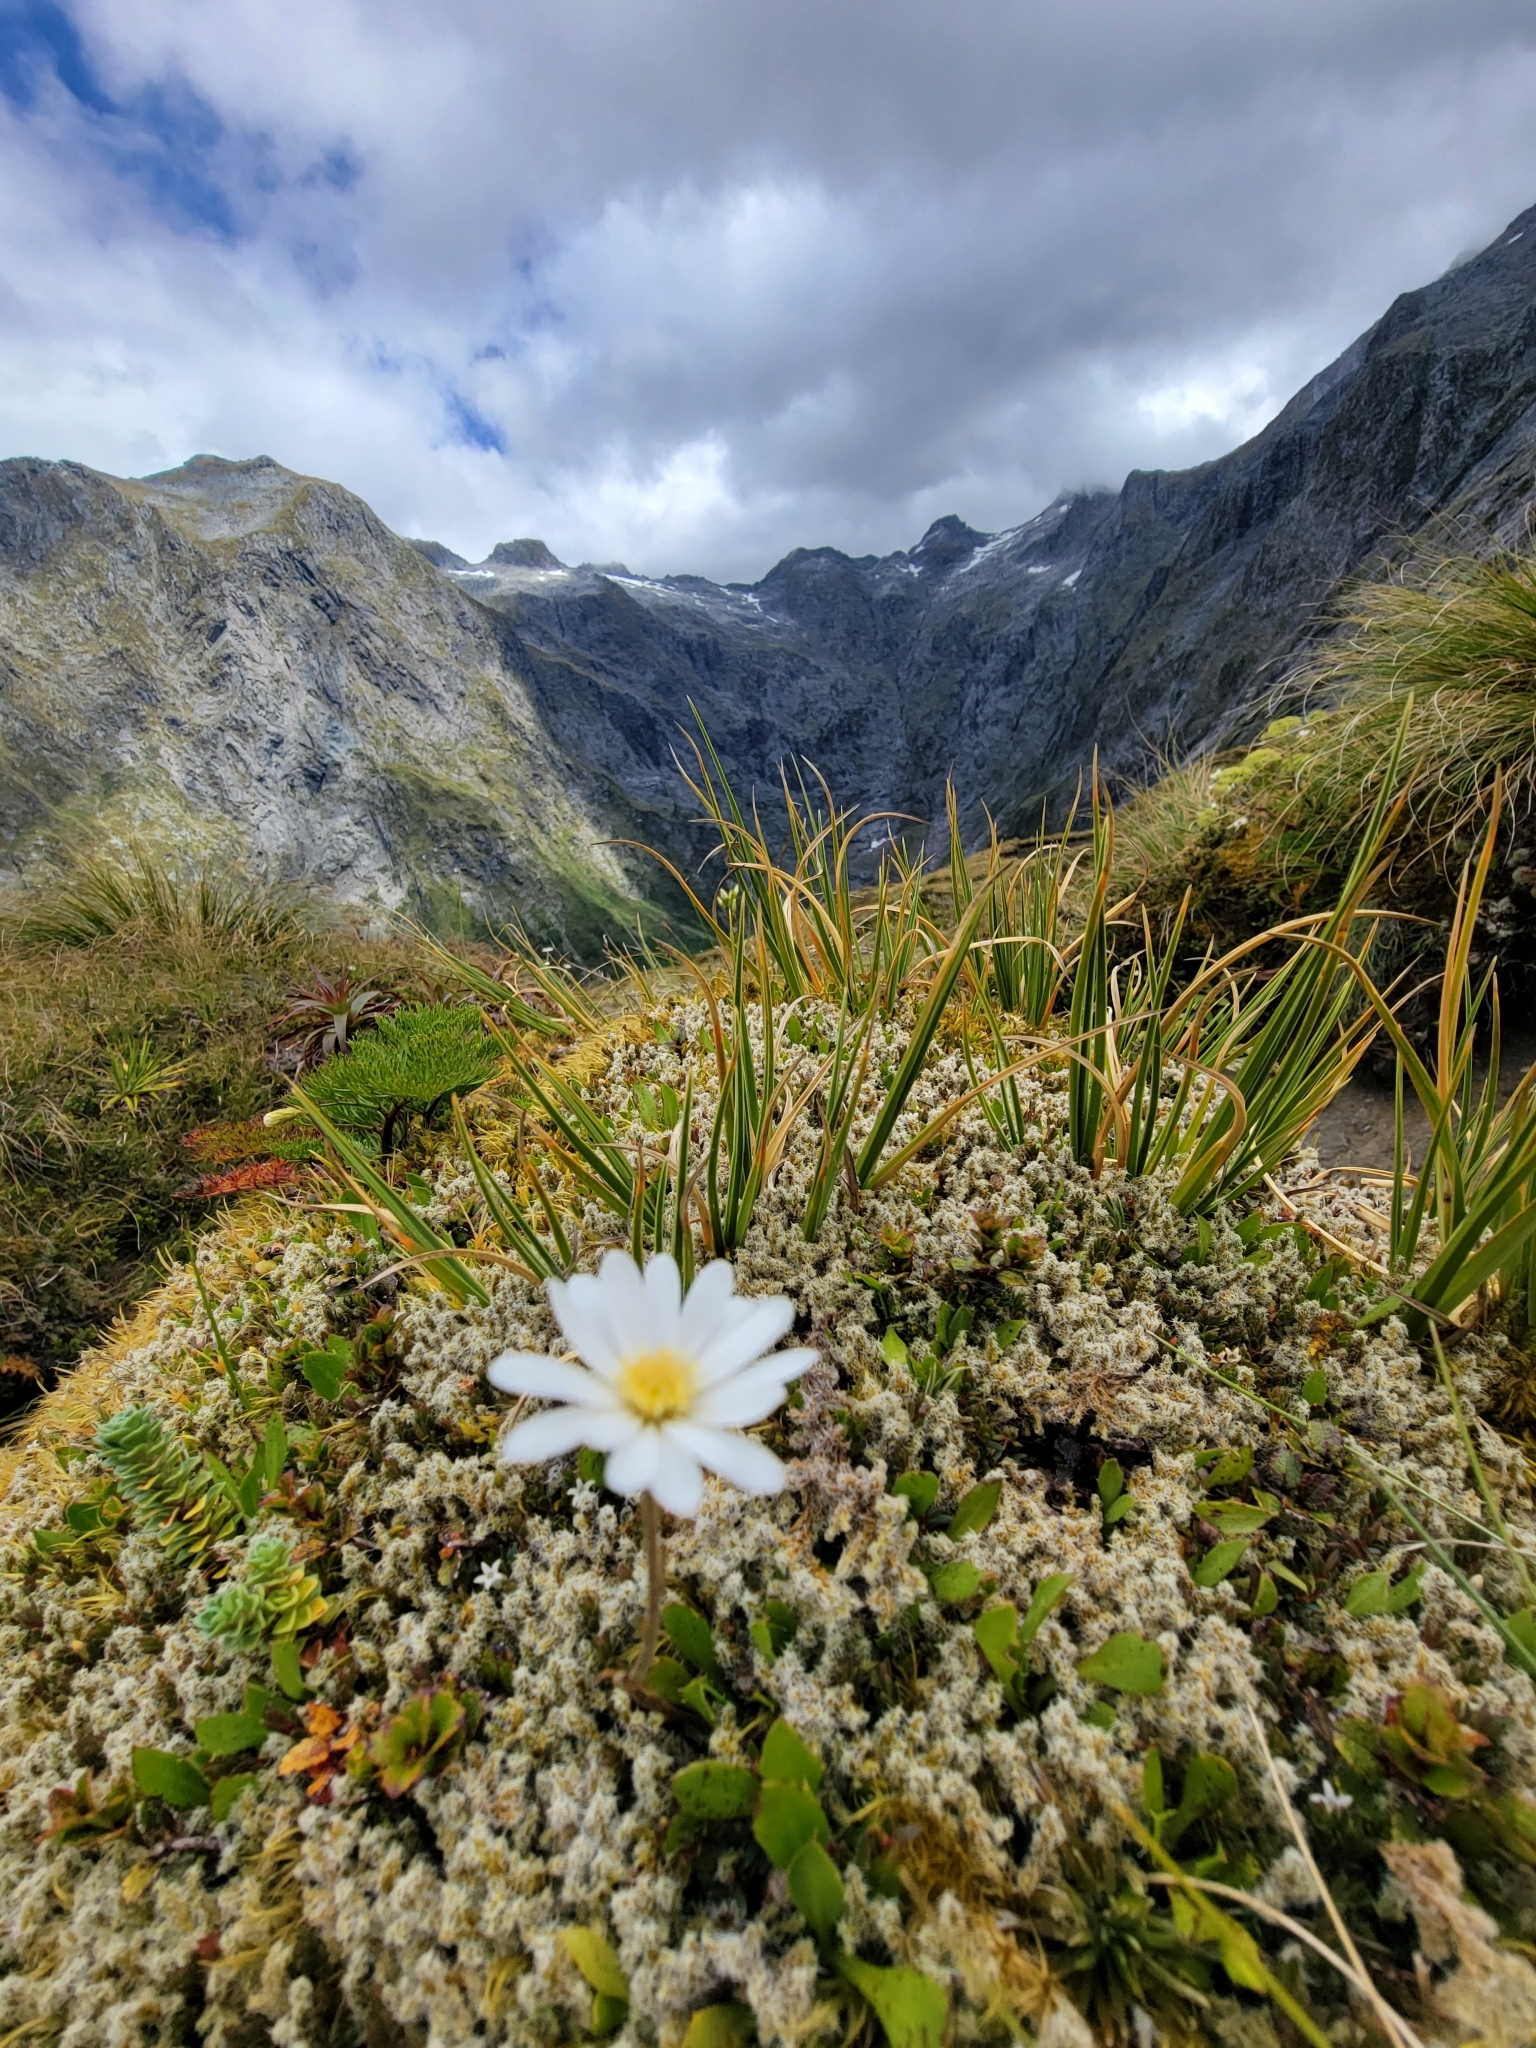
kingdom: Plantae
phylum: Tracheophyta
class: Magnoliopsida
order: Asterales
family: Asteraceae
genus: Celmisia
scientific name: Celmisia glandulosa
